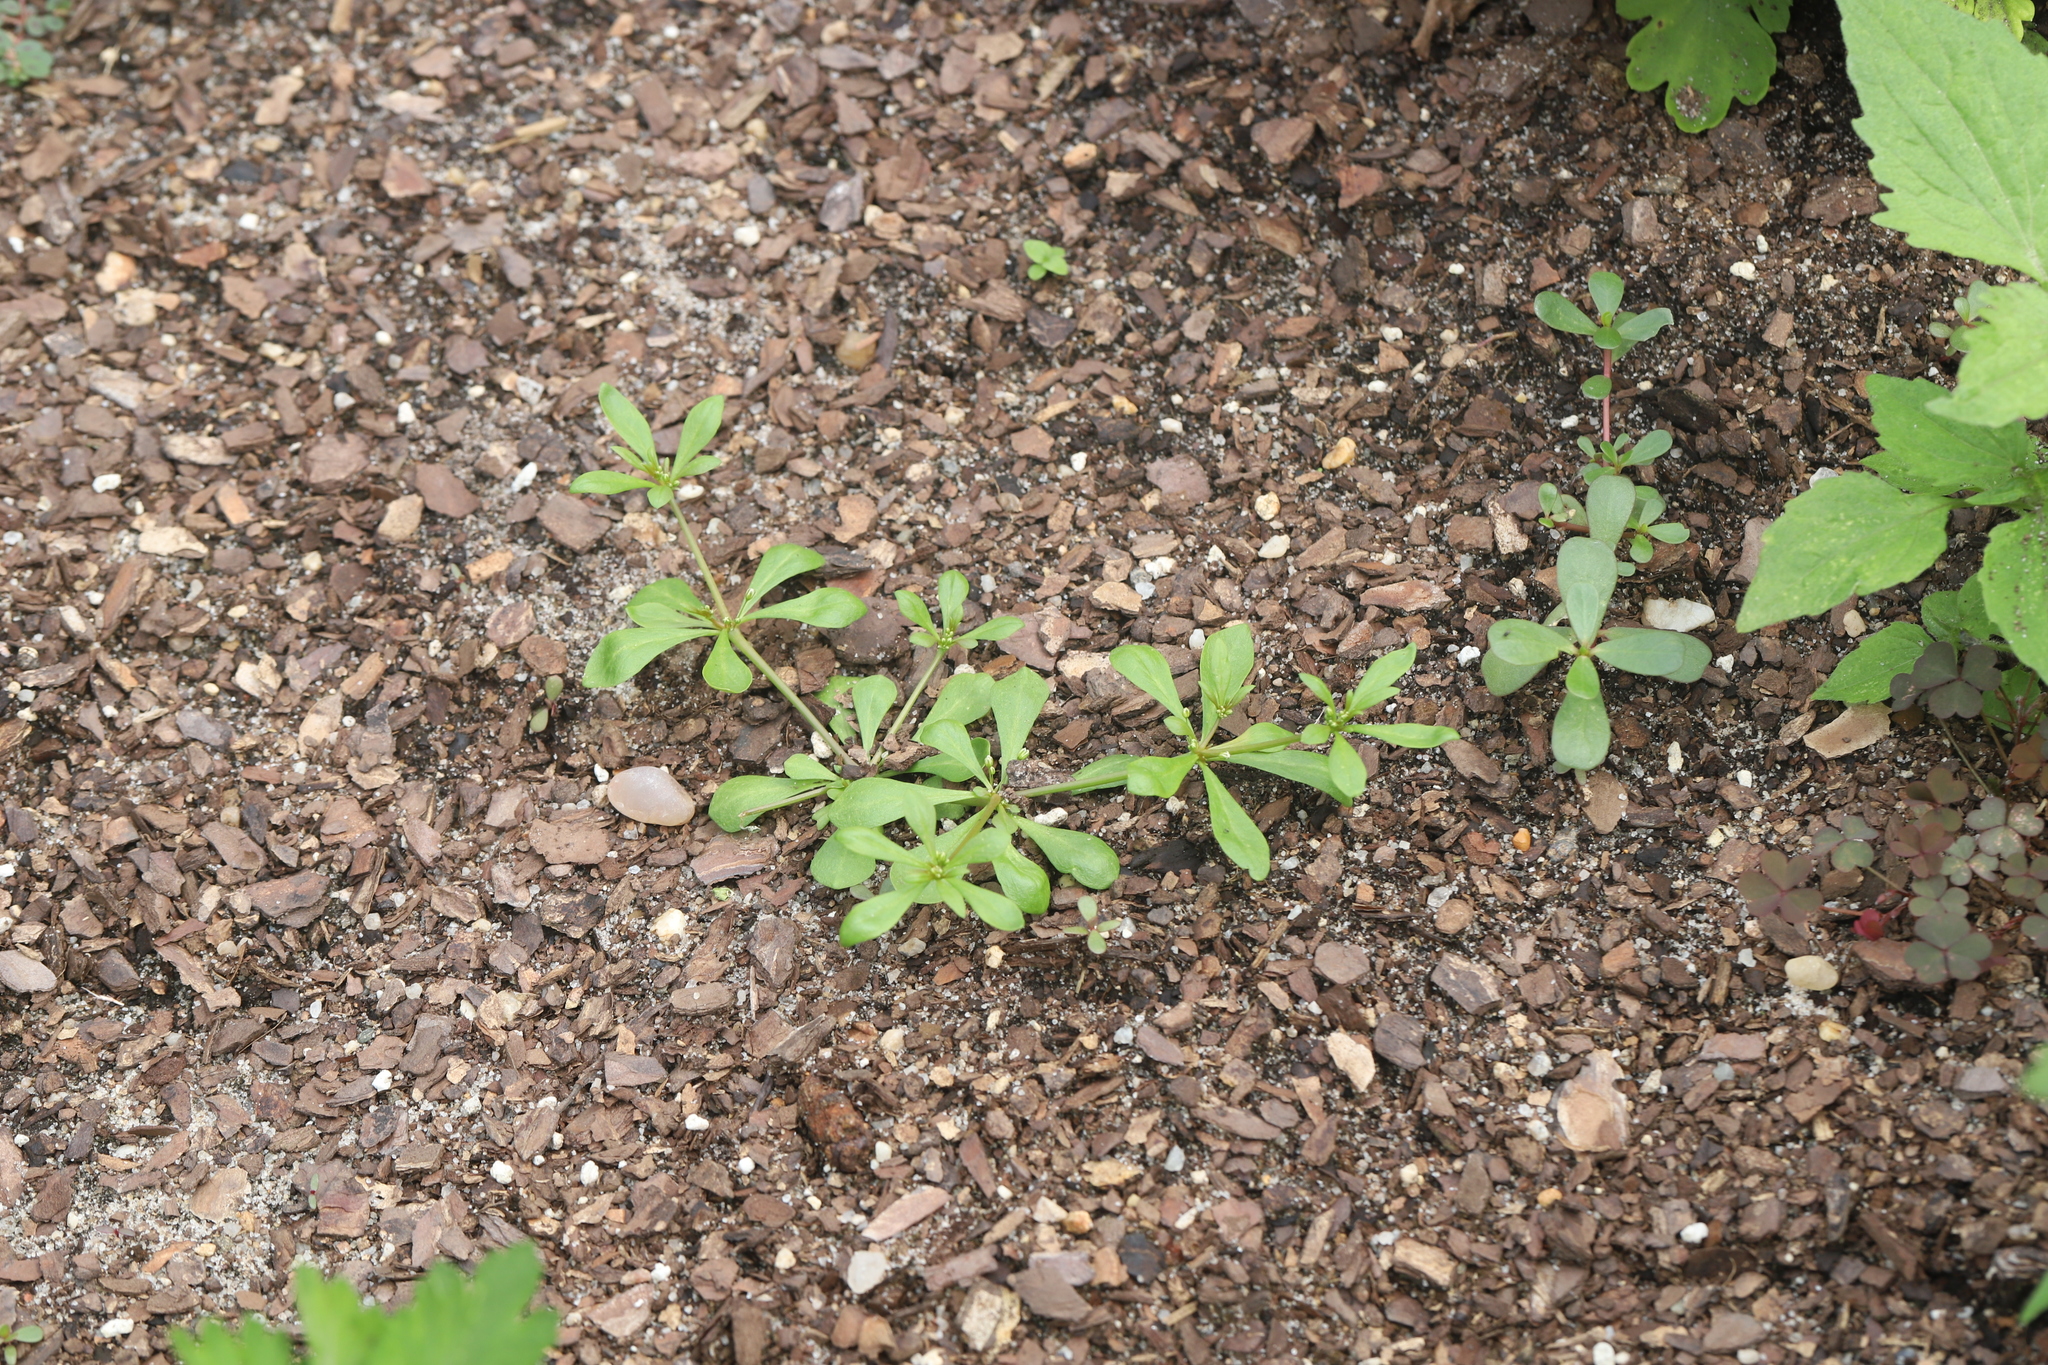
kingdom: Plantae
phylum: Tracheophyta
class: Magnoliopsida
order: Caryophyllales
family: Molluginaceae
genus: Mollugo
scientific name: Mollugo verticillata
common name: Green carpetweed
